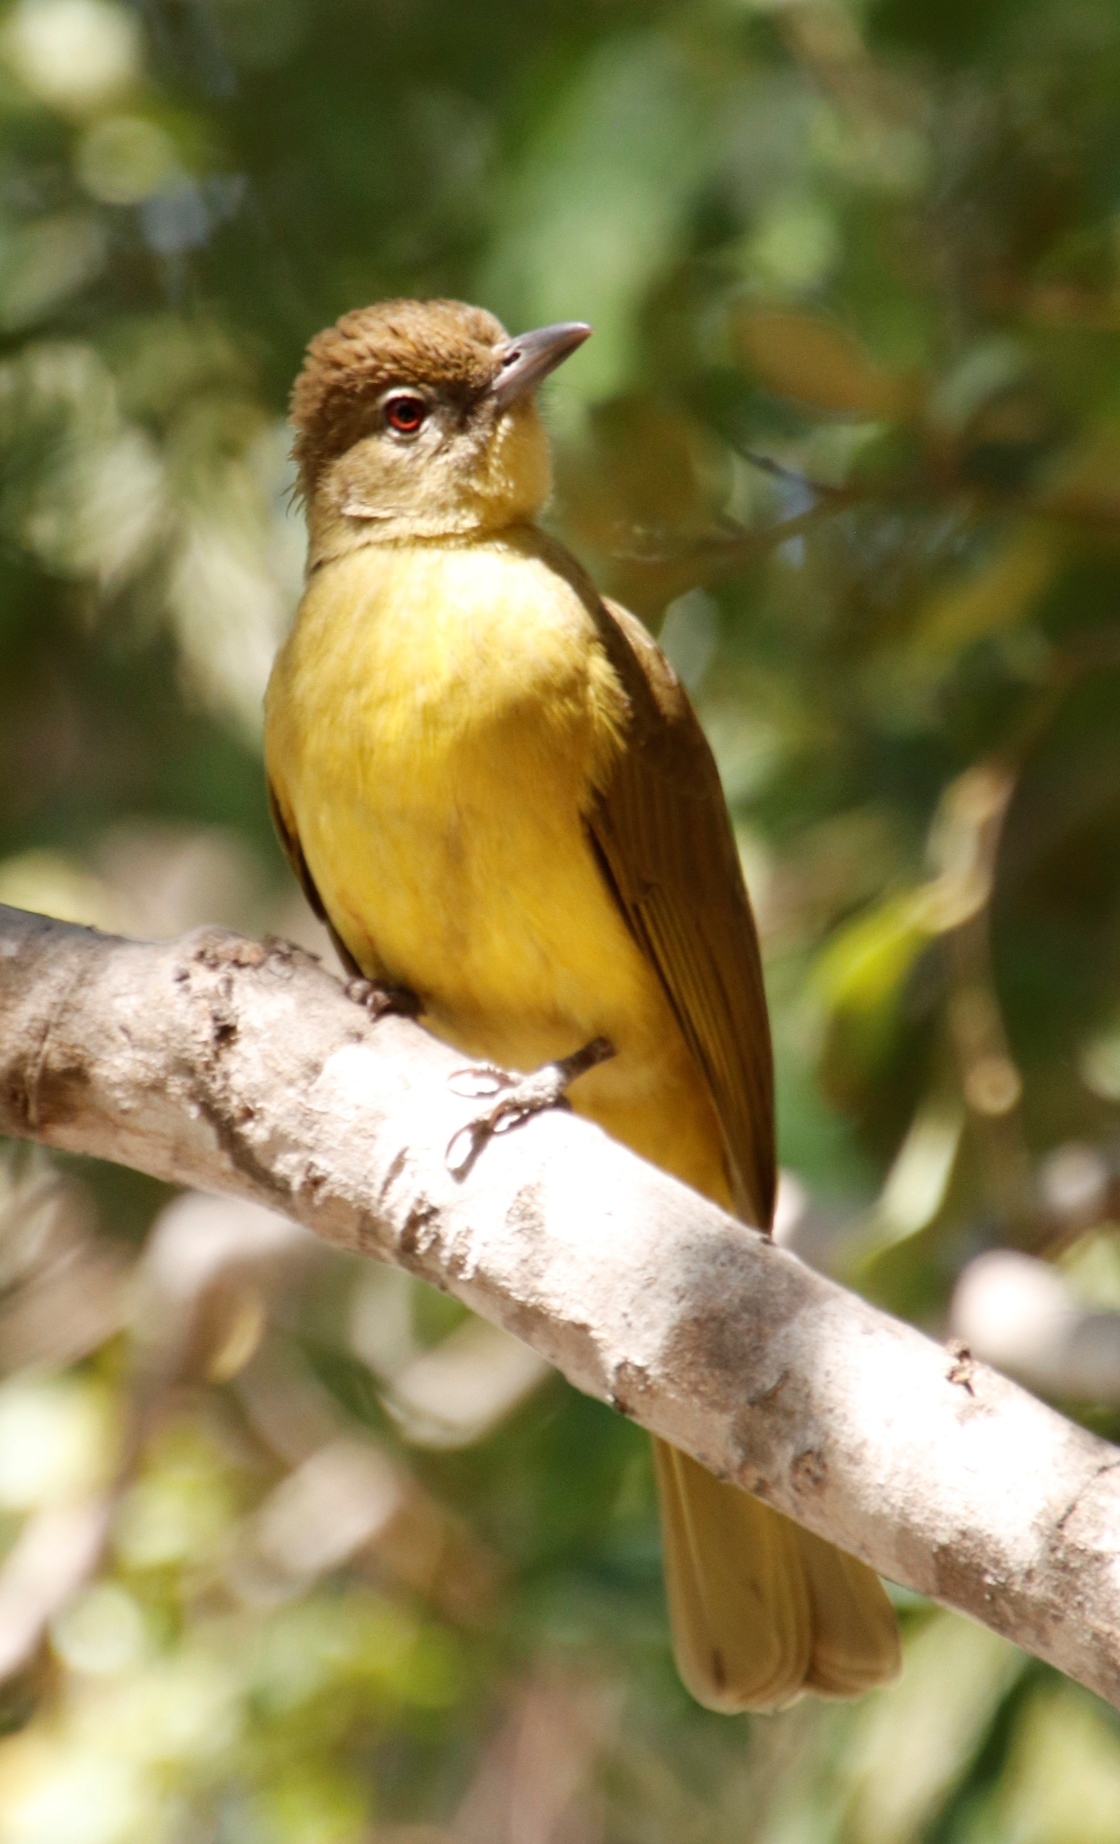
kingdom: Animalia
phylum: Chordata
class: Aves
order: Passeriformes
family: Pycnonotidae
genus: Chlorocichla
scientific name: Chlorocichla flaviventris
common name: Yellow-bellied greenbul
